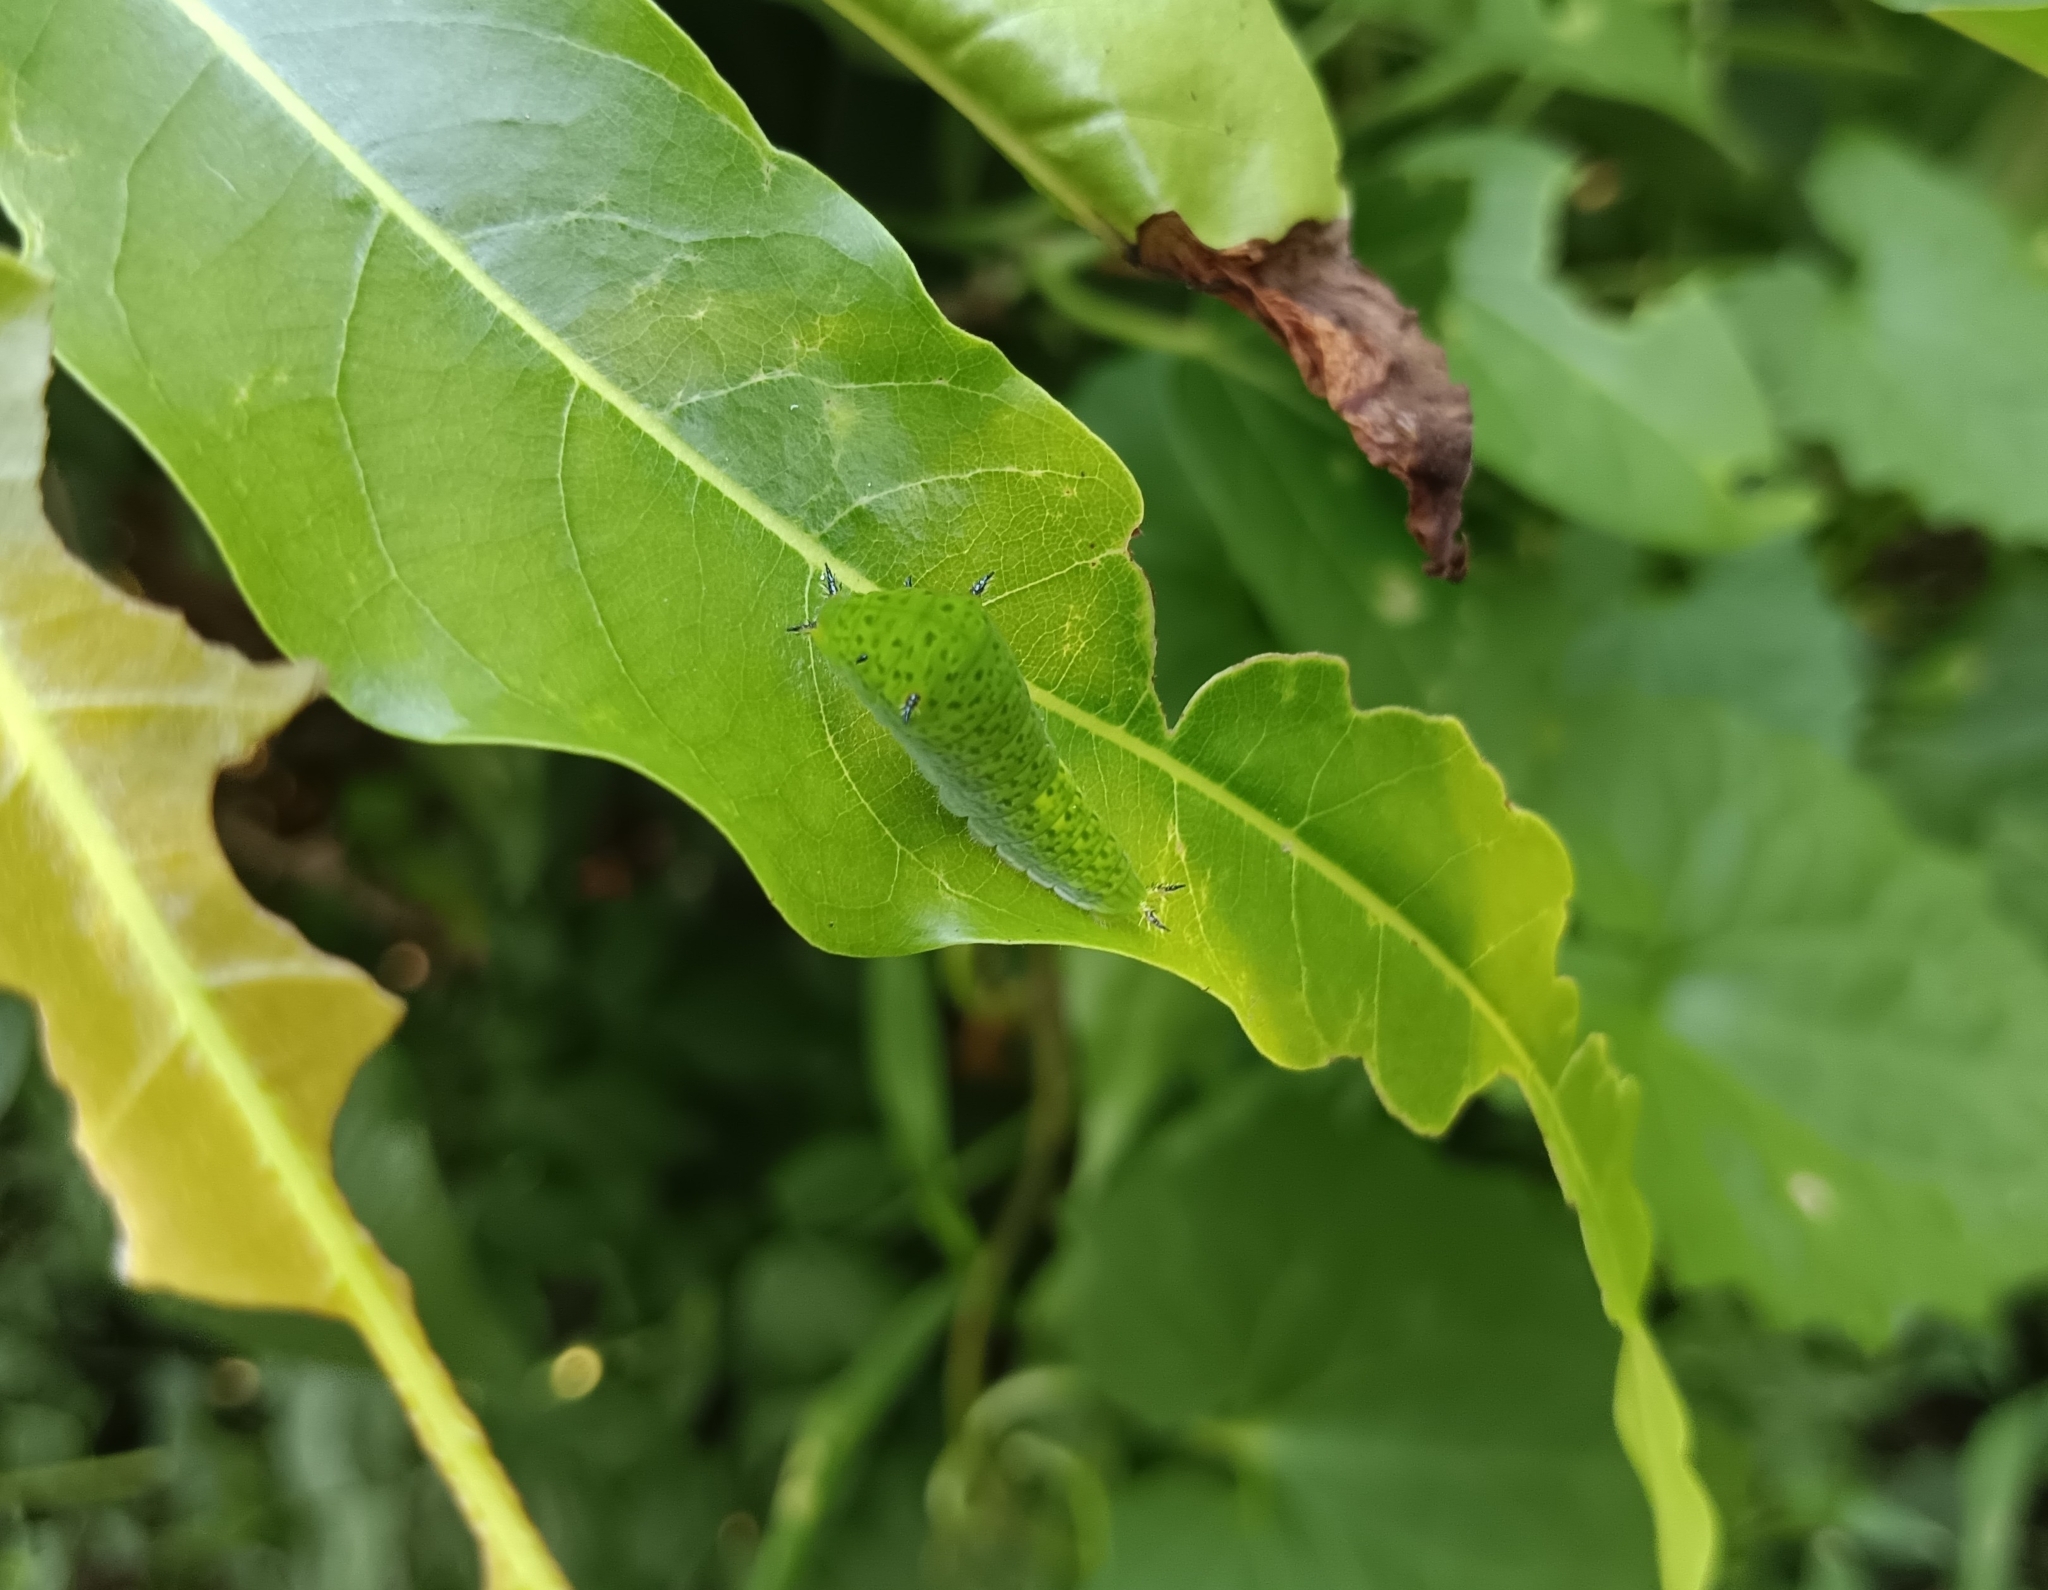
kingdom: Animalia
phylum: Arthropoda
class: Insecta
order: Lepidoptera
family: Papilionidae
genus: Graphium
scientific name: Graphium agamemnon
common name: Tailed jay
